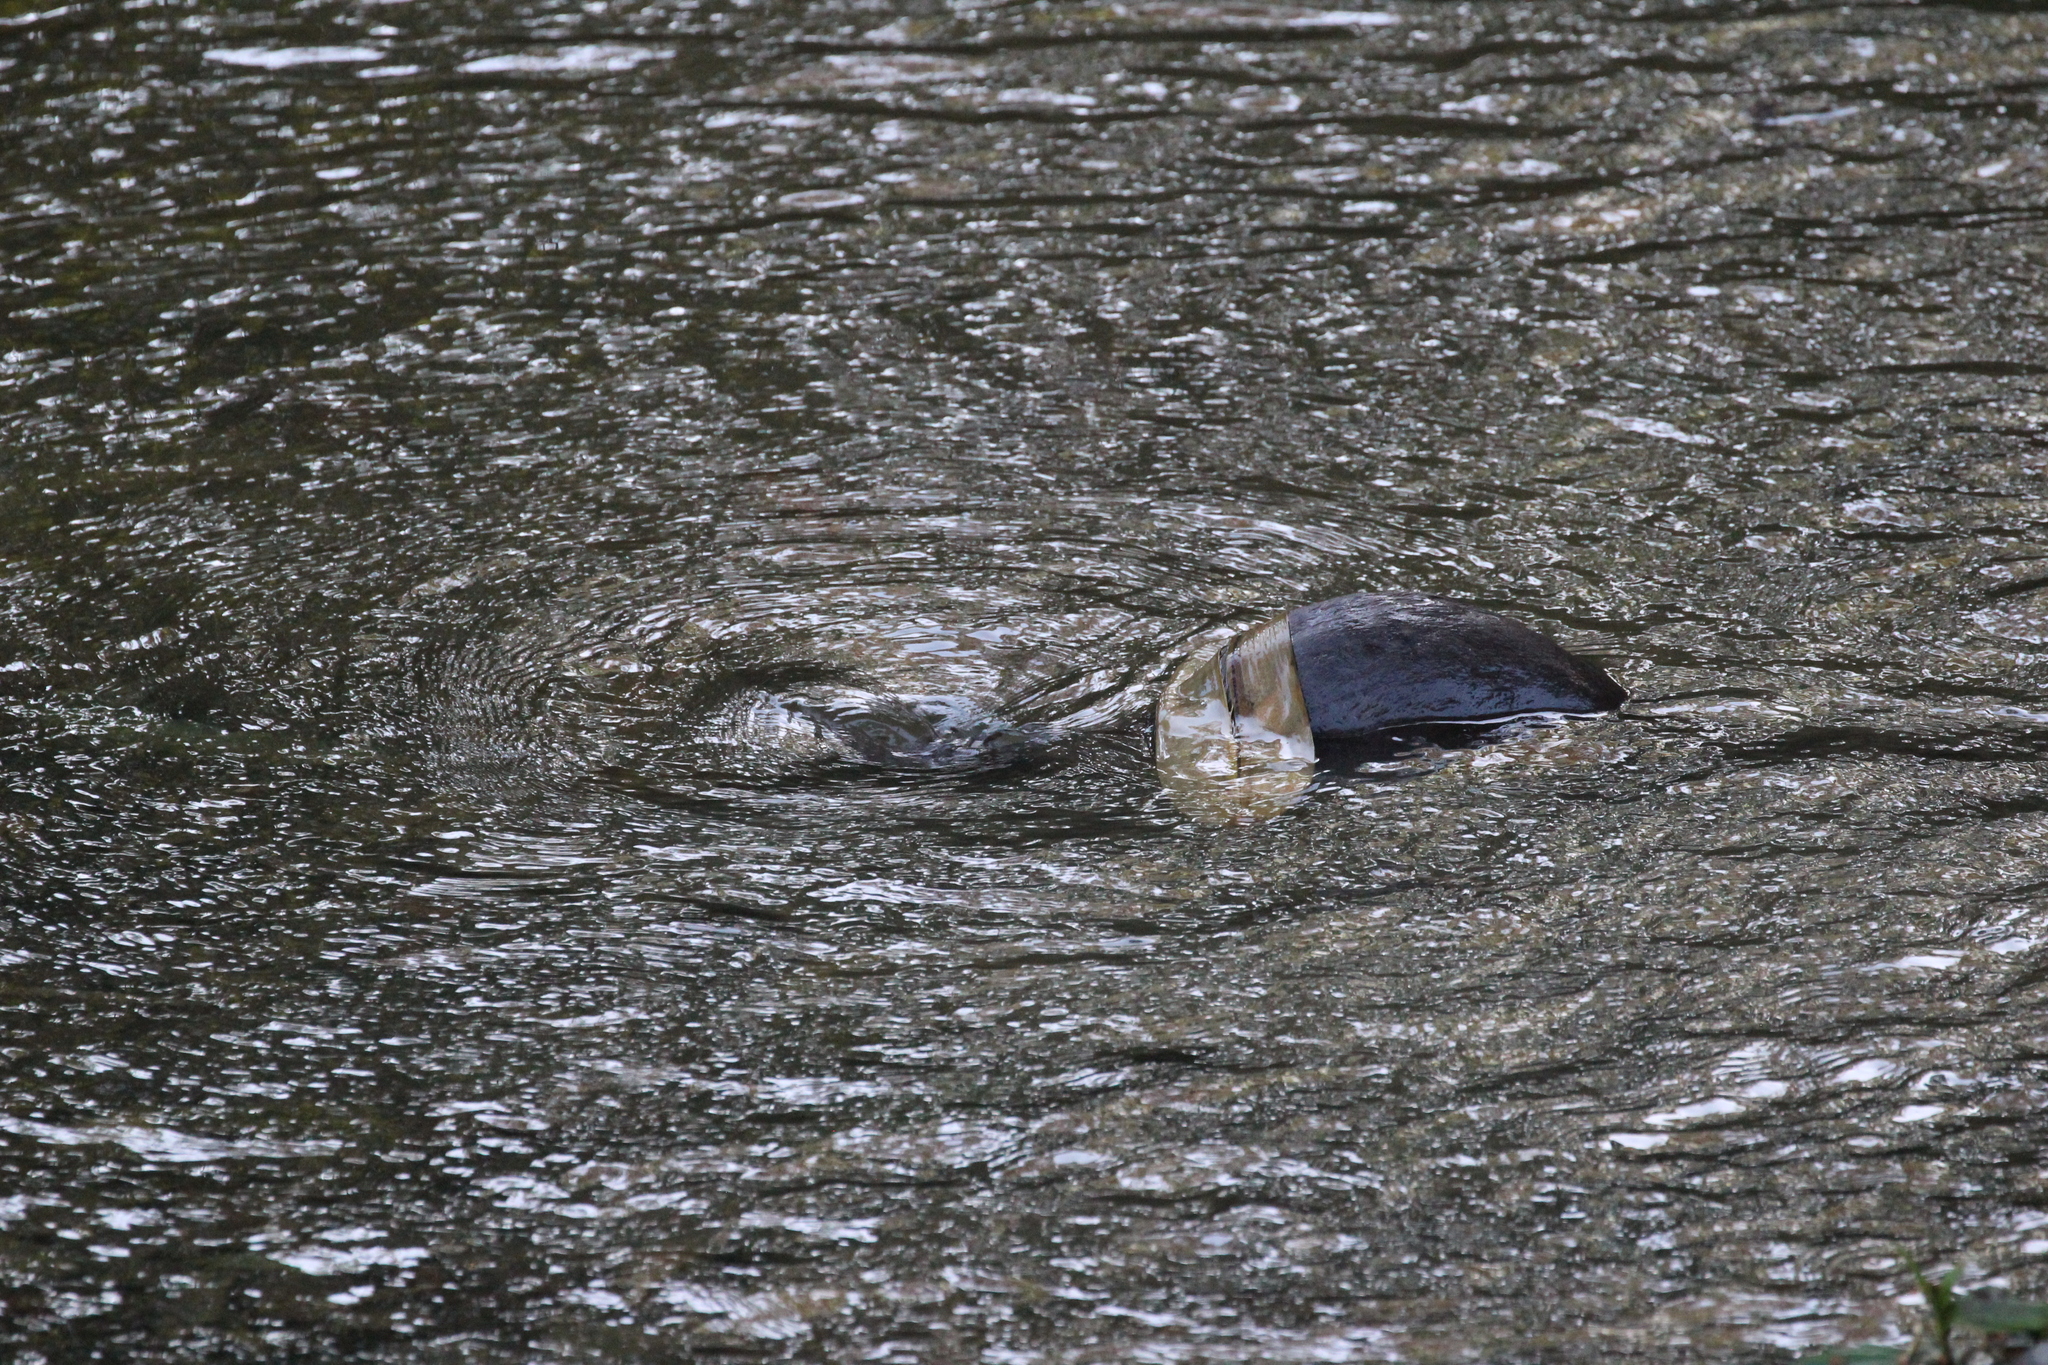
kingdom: Animalia
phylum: Chordata
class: Mammalia
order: Carnivora
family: Mustelidae
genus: Lontra
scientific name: Lontra longicaudis
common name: Neotropical otter
